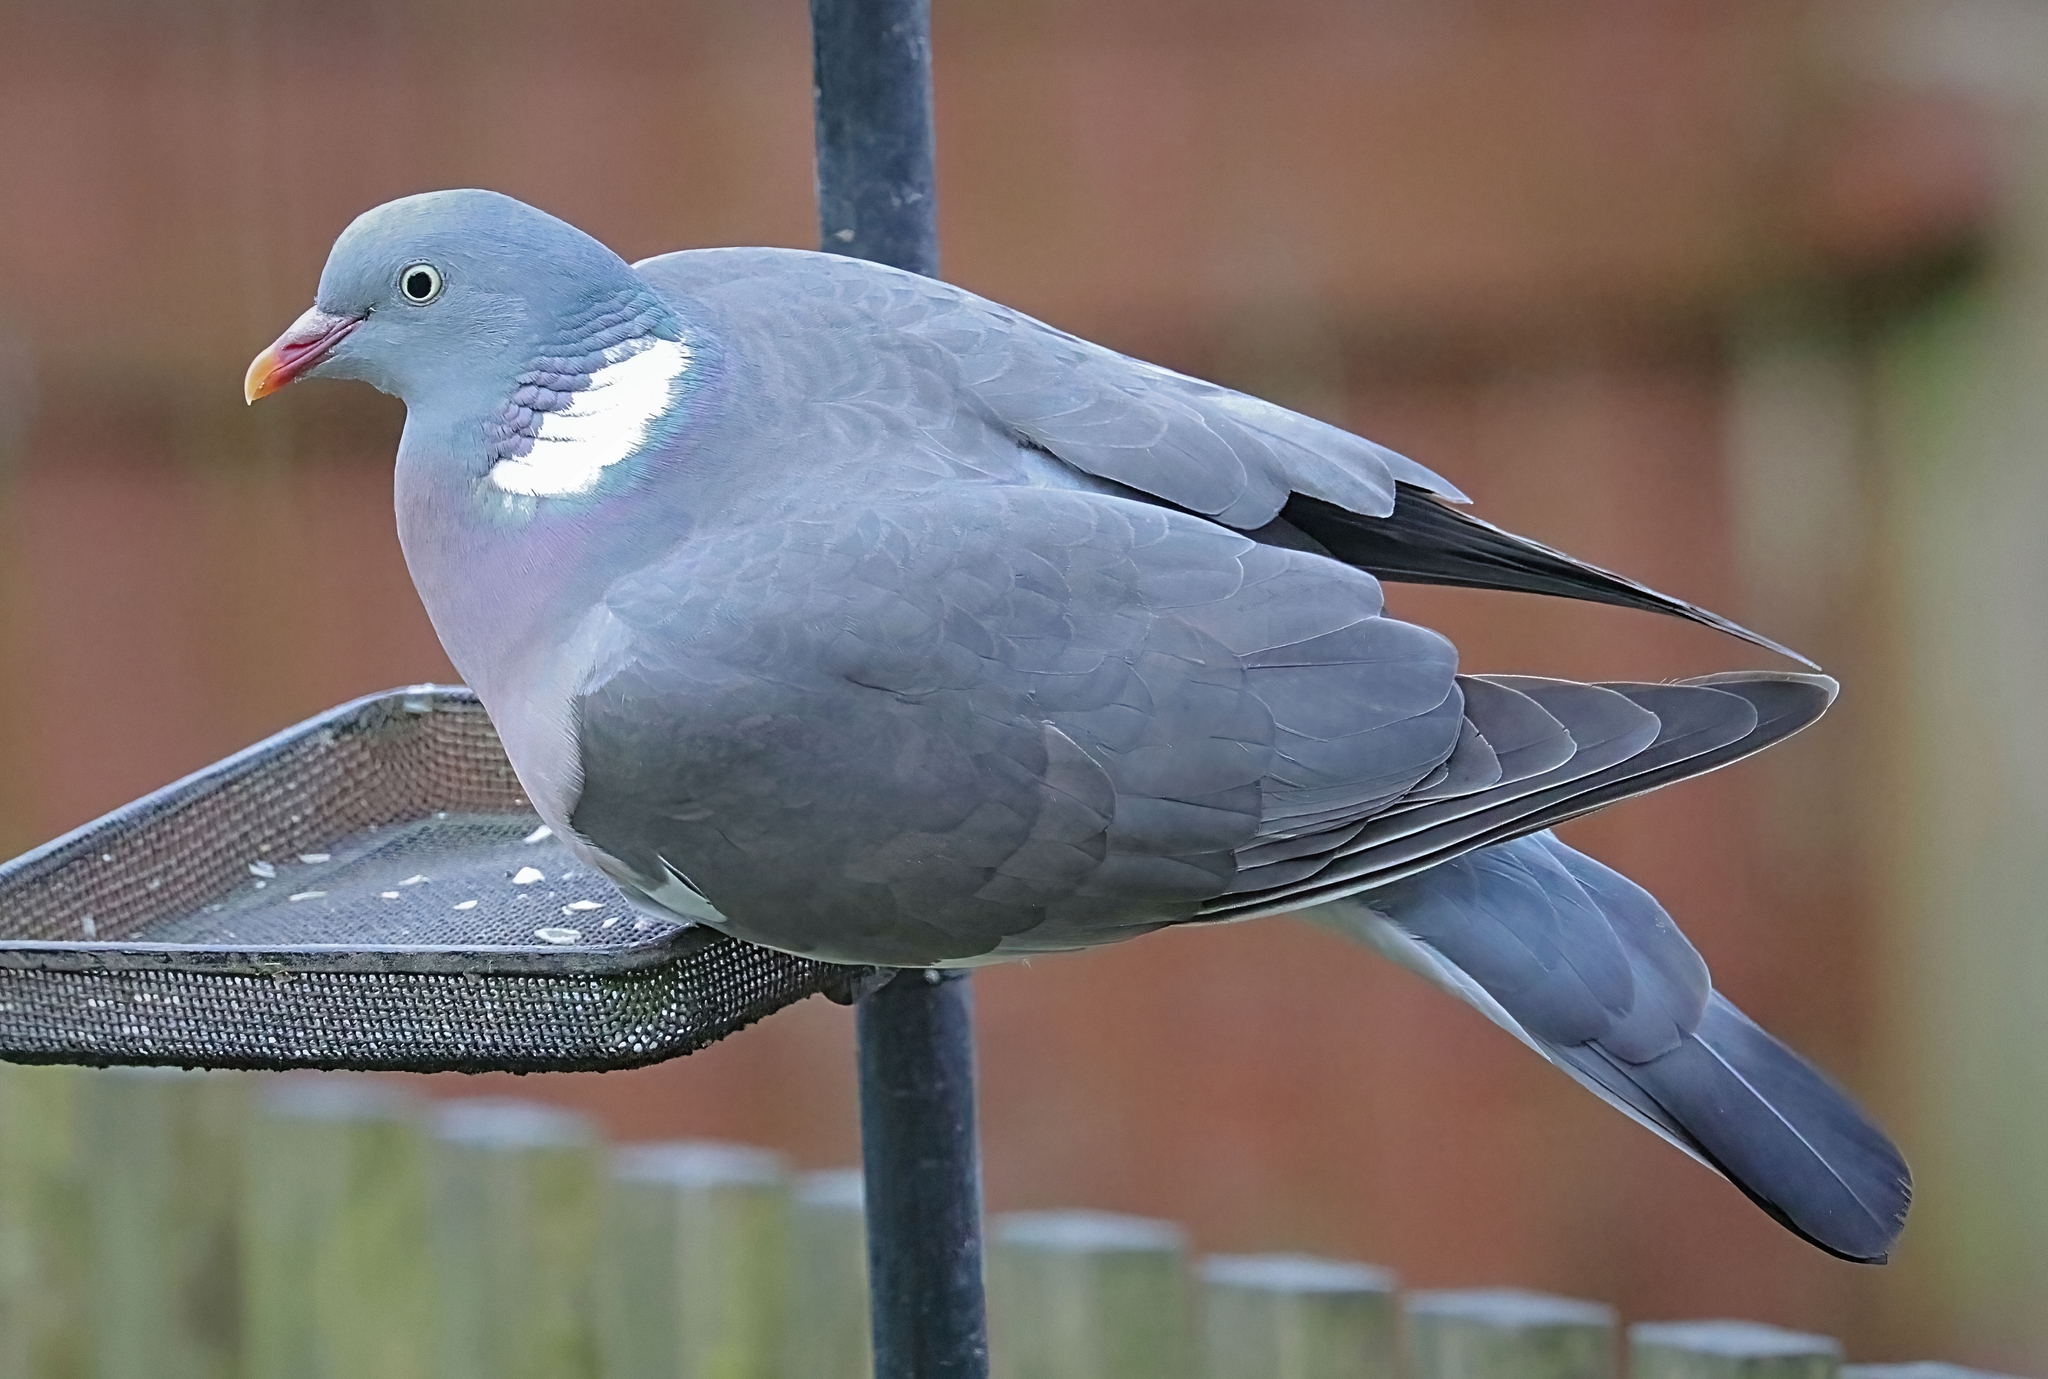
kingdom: Animalia
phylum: Chordata
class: Aves
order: Columbiformes
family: Columbidae
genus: Columba
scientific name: Columba palumbus
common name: Common wood pigeon
